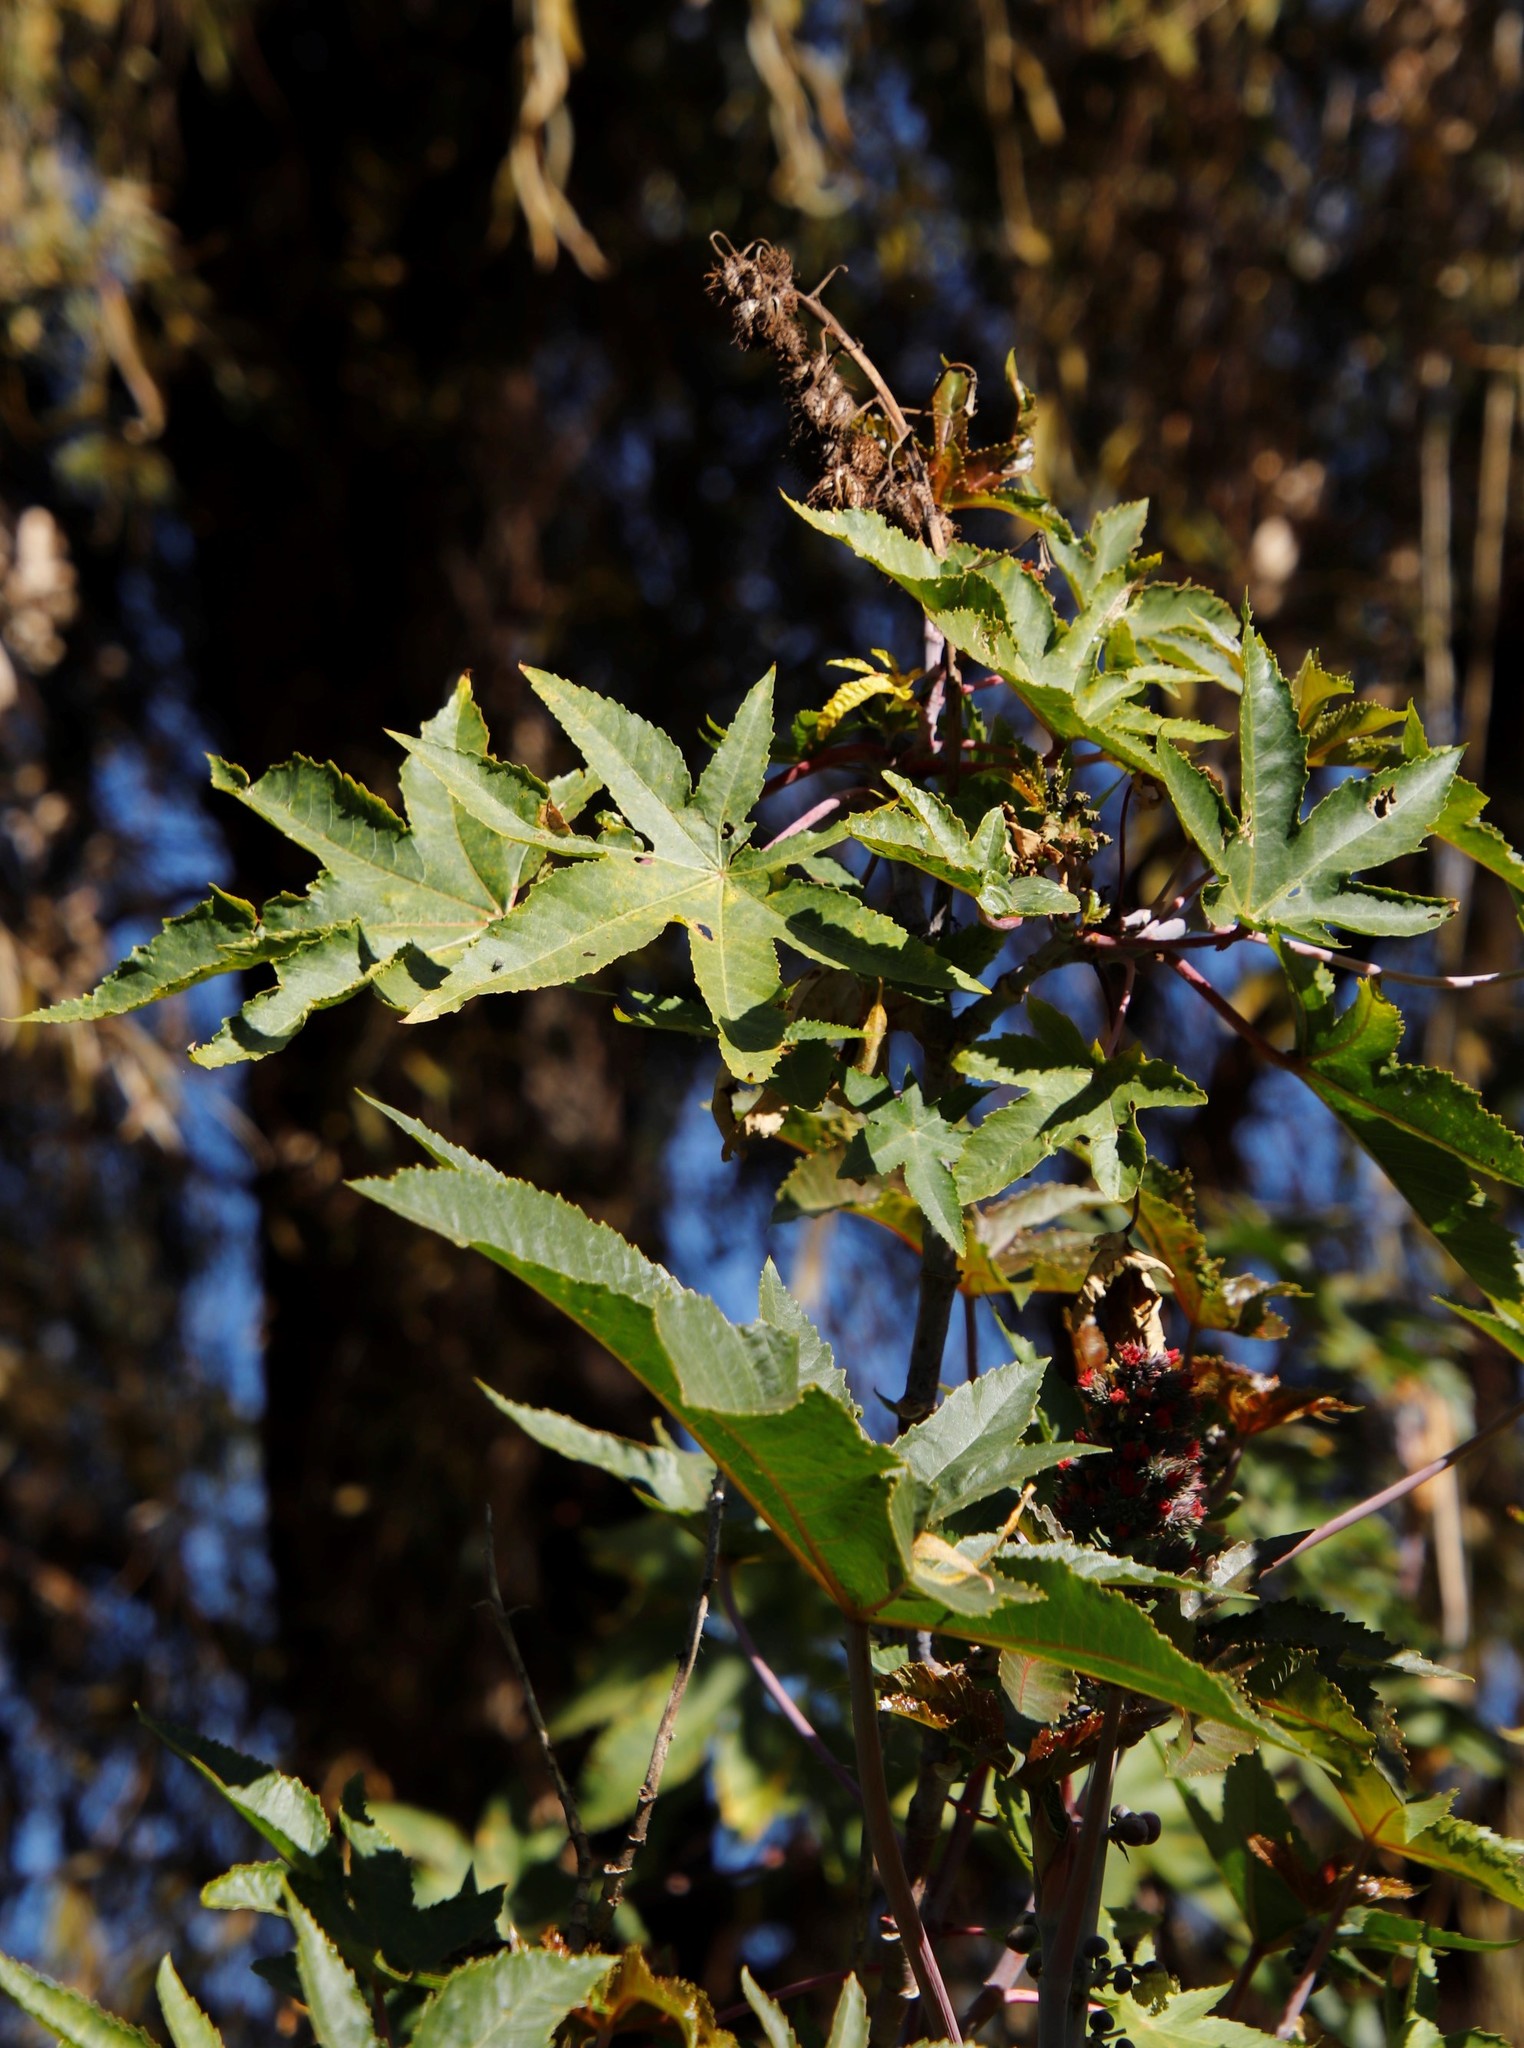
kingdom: Plantae
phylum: Tracheophyta
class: Magnoliopsida
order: Malpighiales
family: Euphorbiaceae
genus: Ricinus
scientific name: Ricinus communis
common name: Castor-oil-plant
